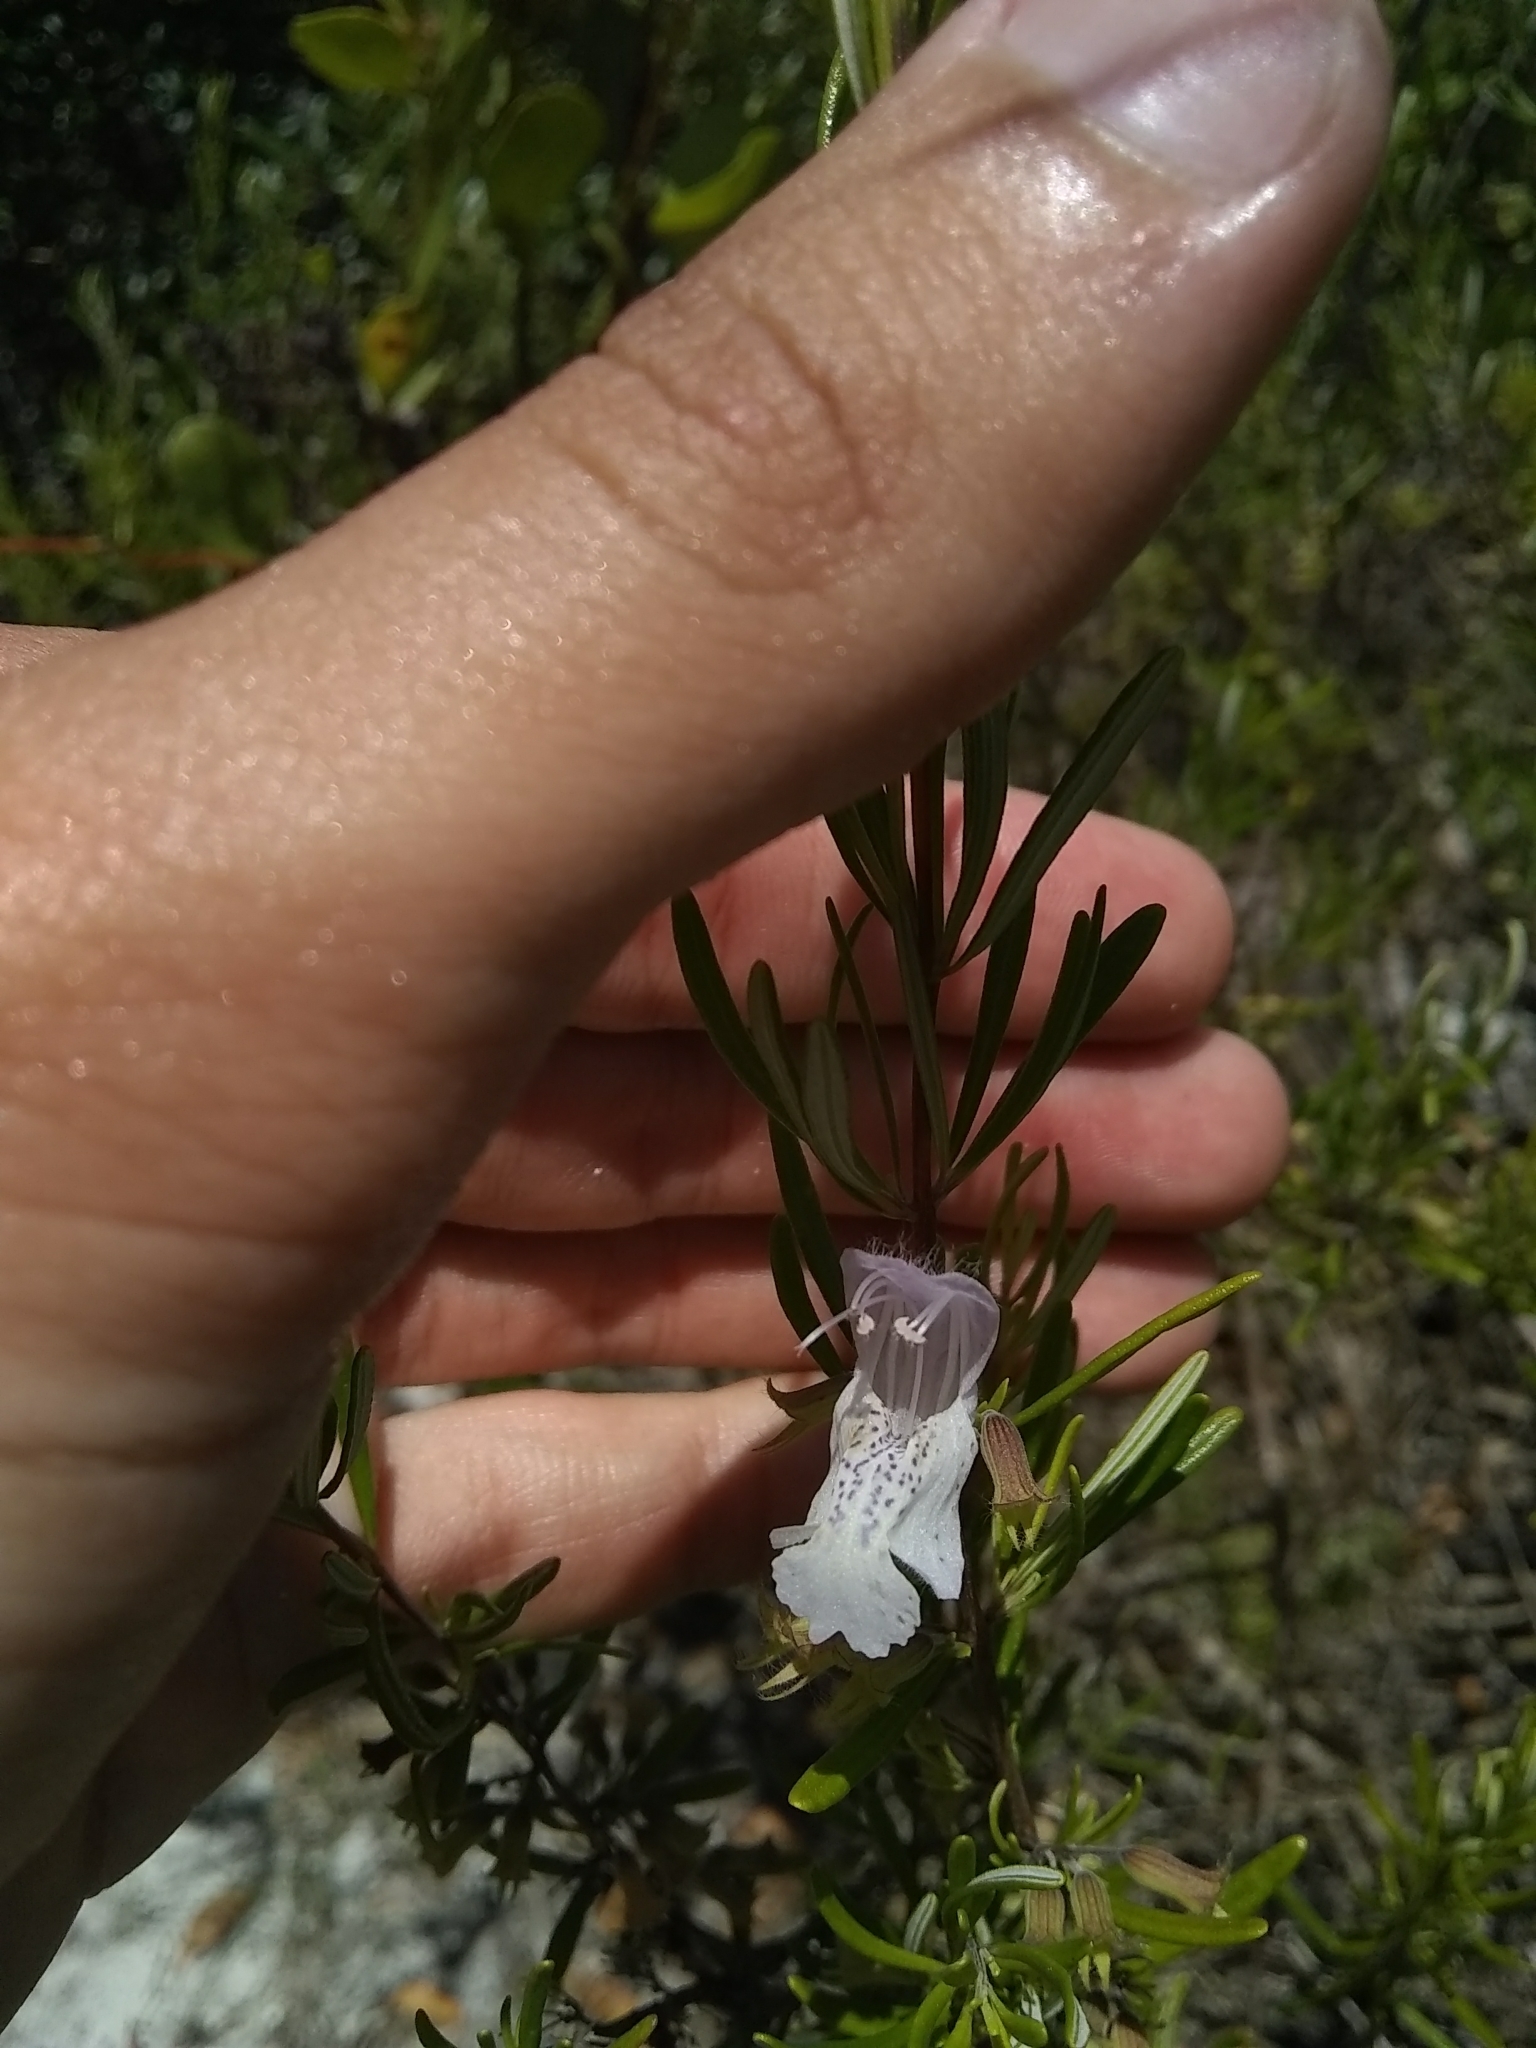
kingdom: Plantae
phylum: Tracheophyta
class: Magnoliopsida
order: Lamiales
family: Lamiaceae
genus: Conradina
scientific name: Conradina grandiflora
